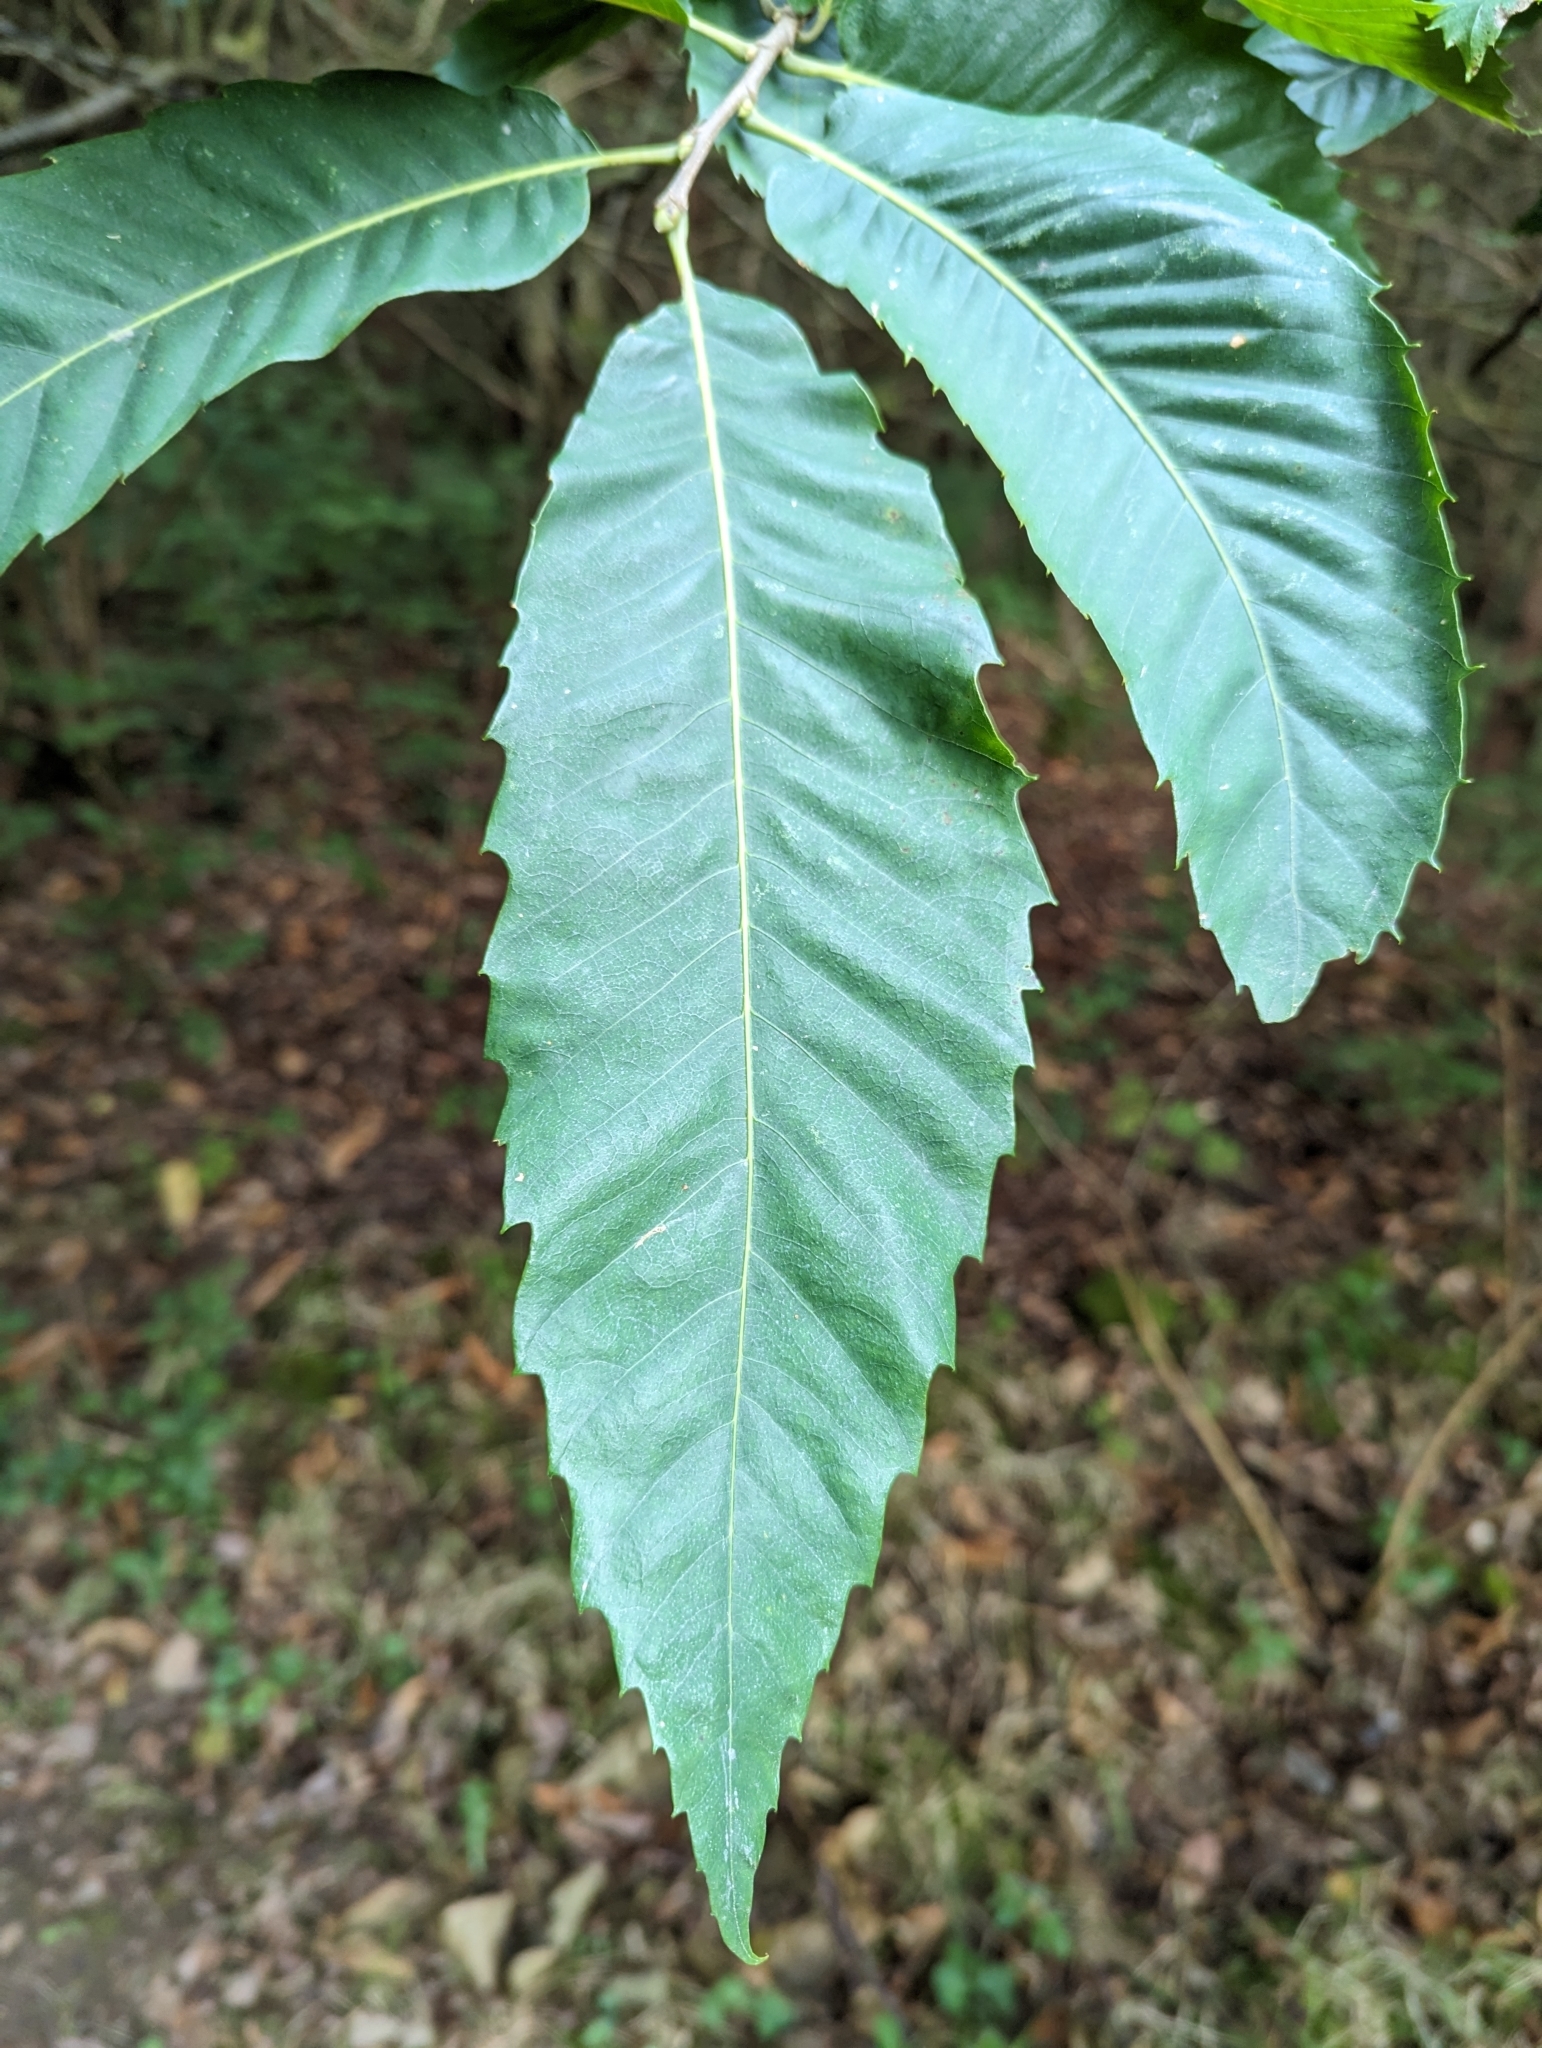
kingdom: Plantae
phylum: Tracheophyta
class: Magnoliopsida
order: Fagales
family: Fagaceae
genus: Castanea
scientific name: Castanea sativa
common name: Sweet chestnut
